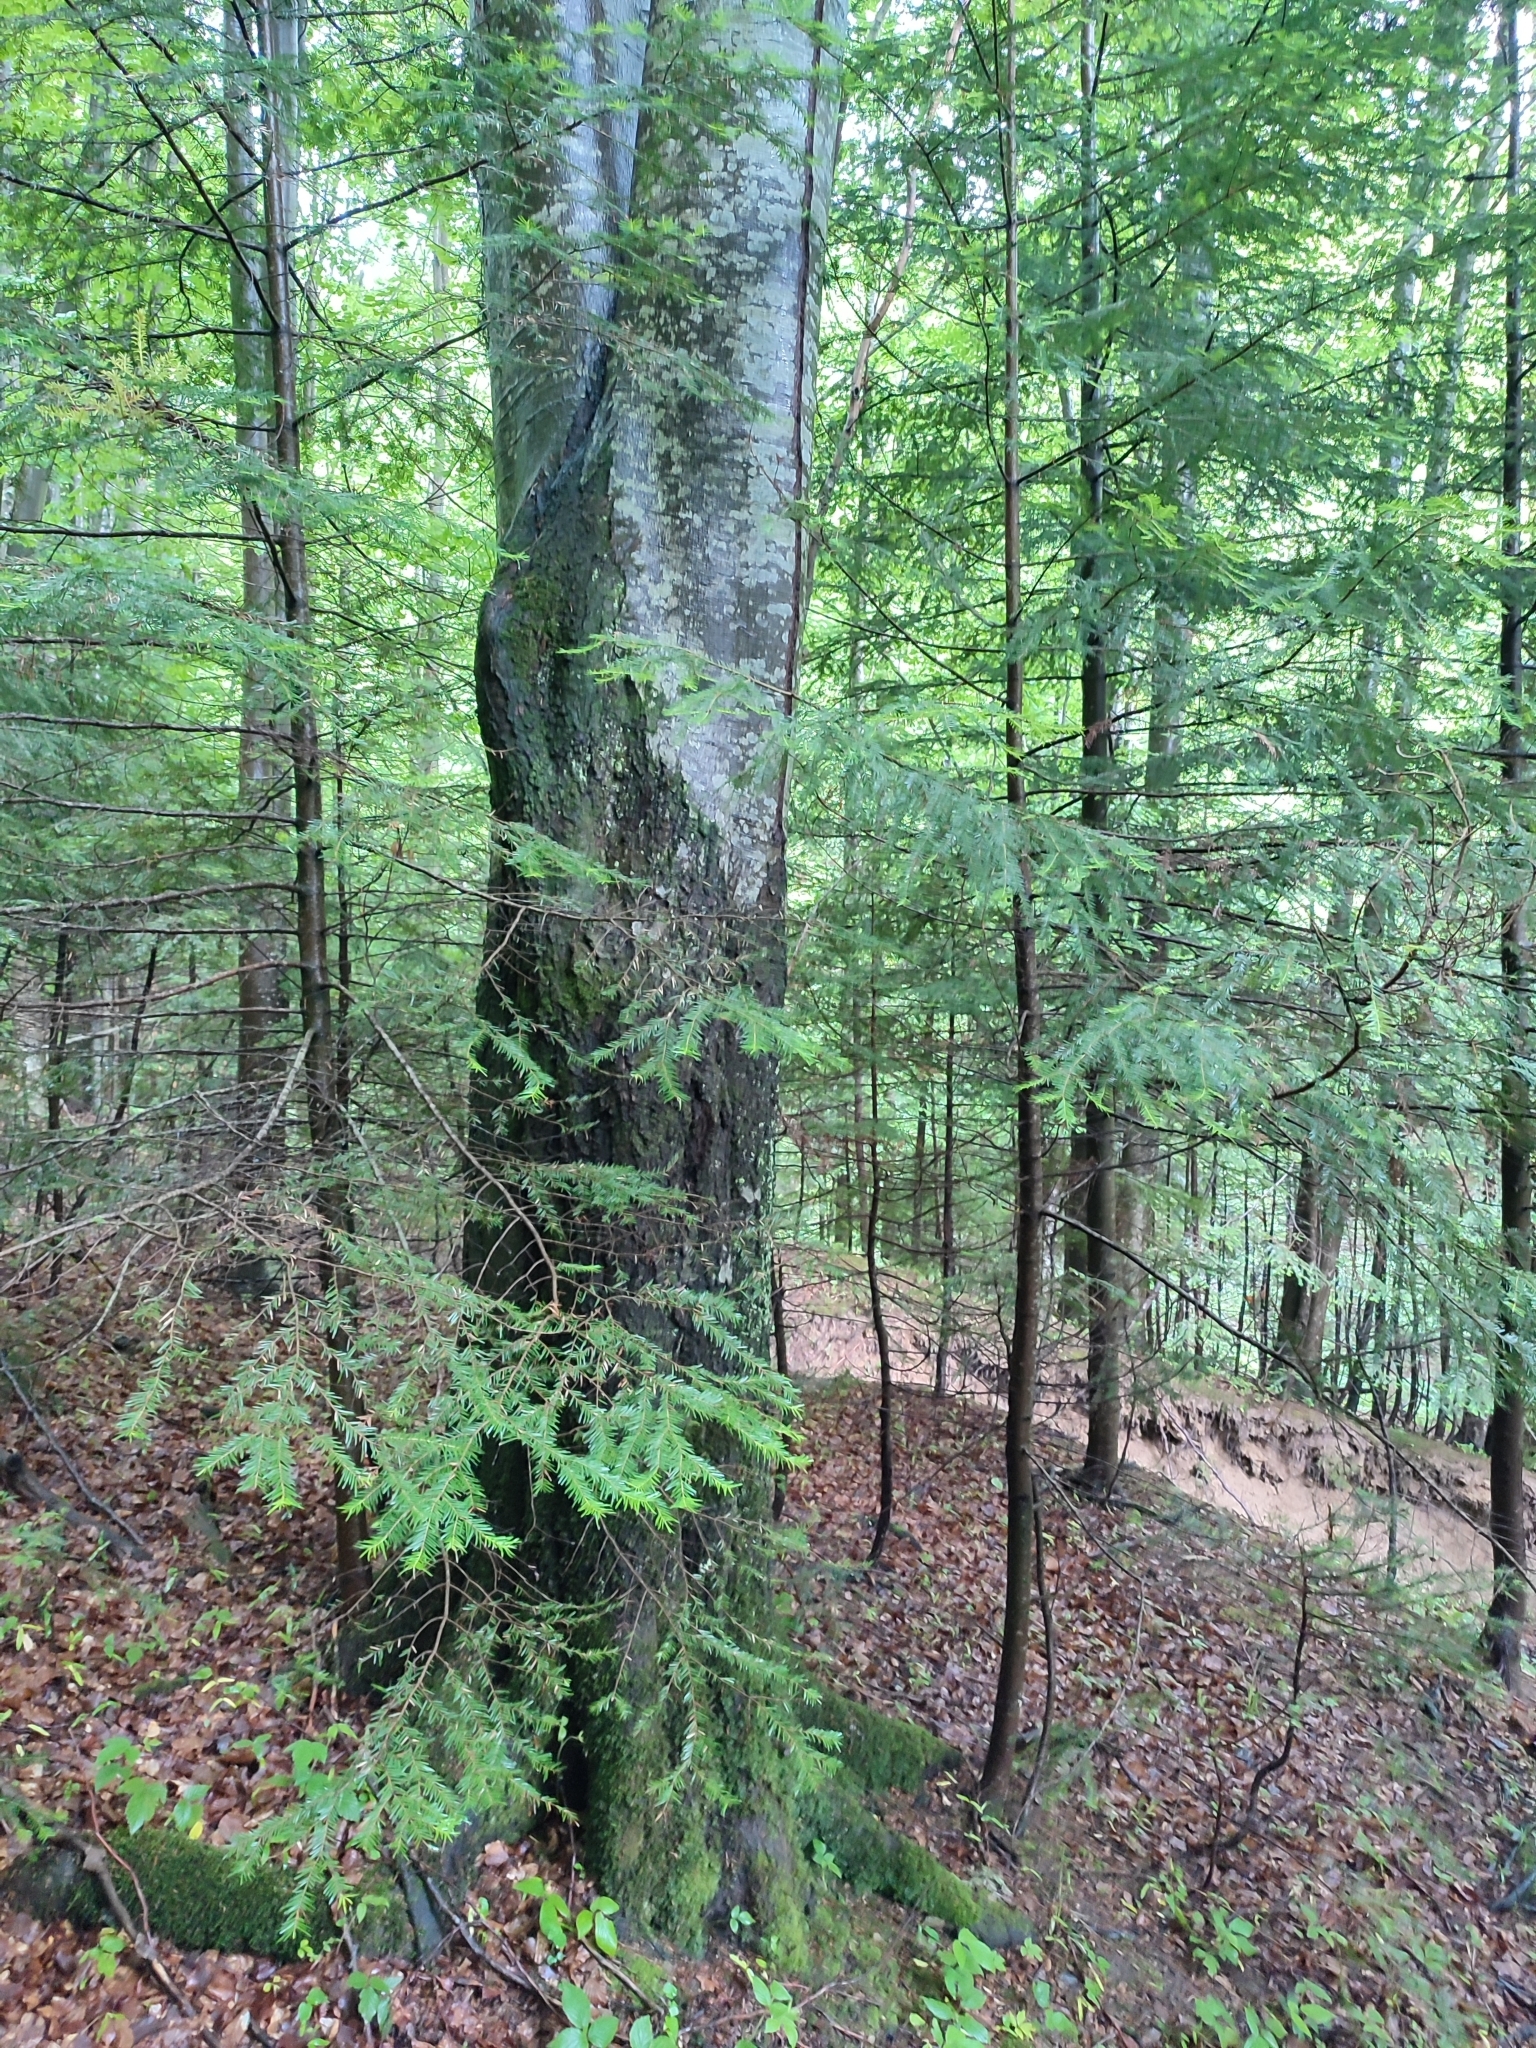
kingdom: Plantae
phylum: Tracheophyta
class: Magnoliopsida
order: Fagales
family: Fagaceae
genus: Fagus
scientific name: Fagus sylvatica
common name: Beech
